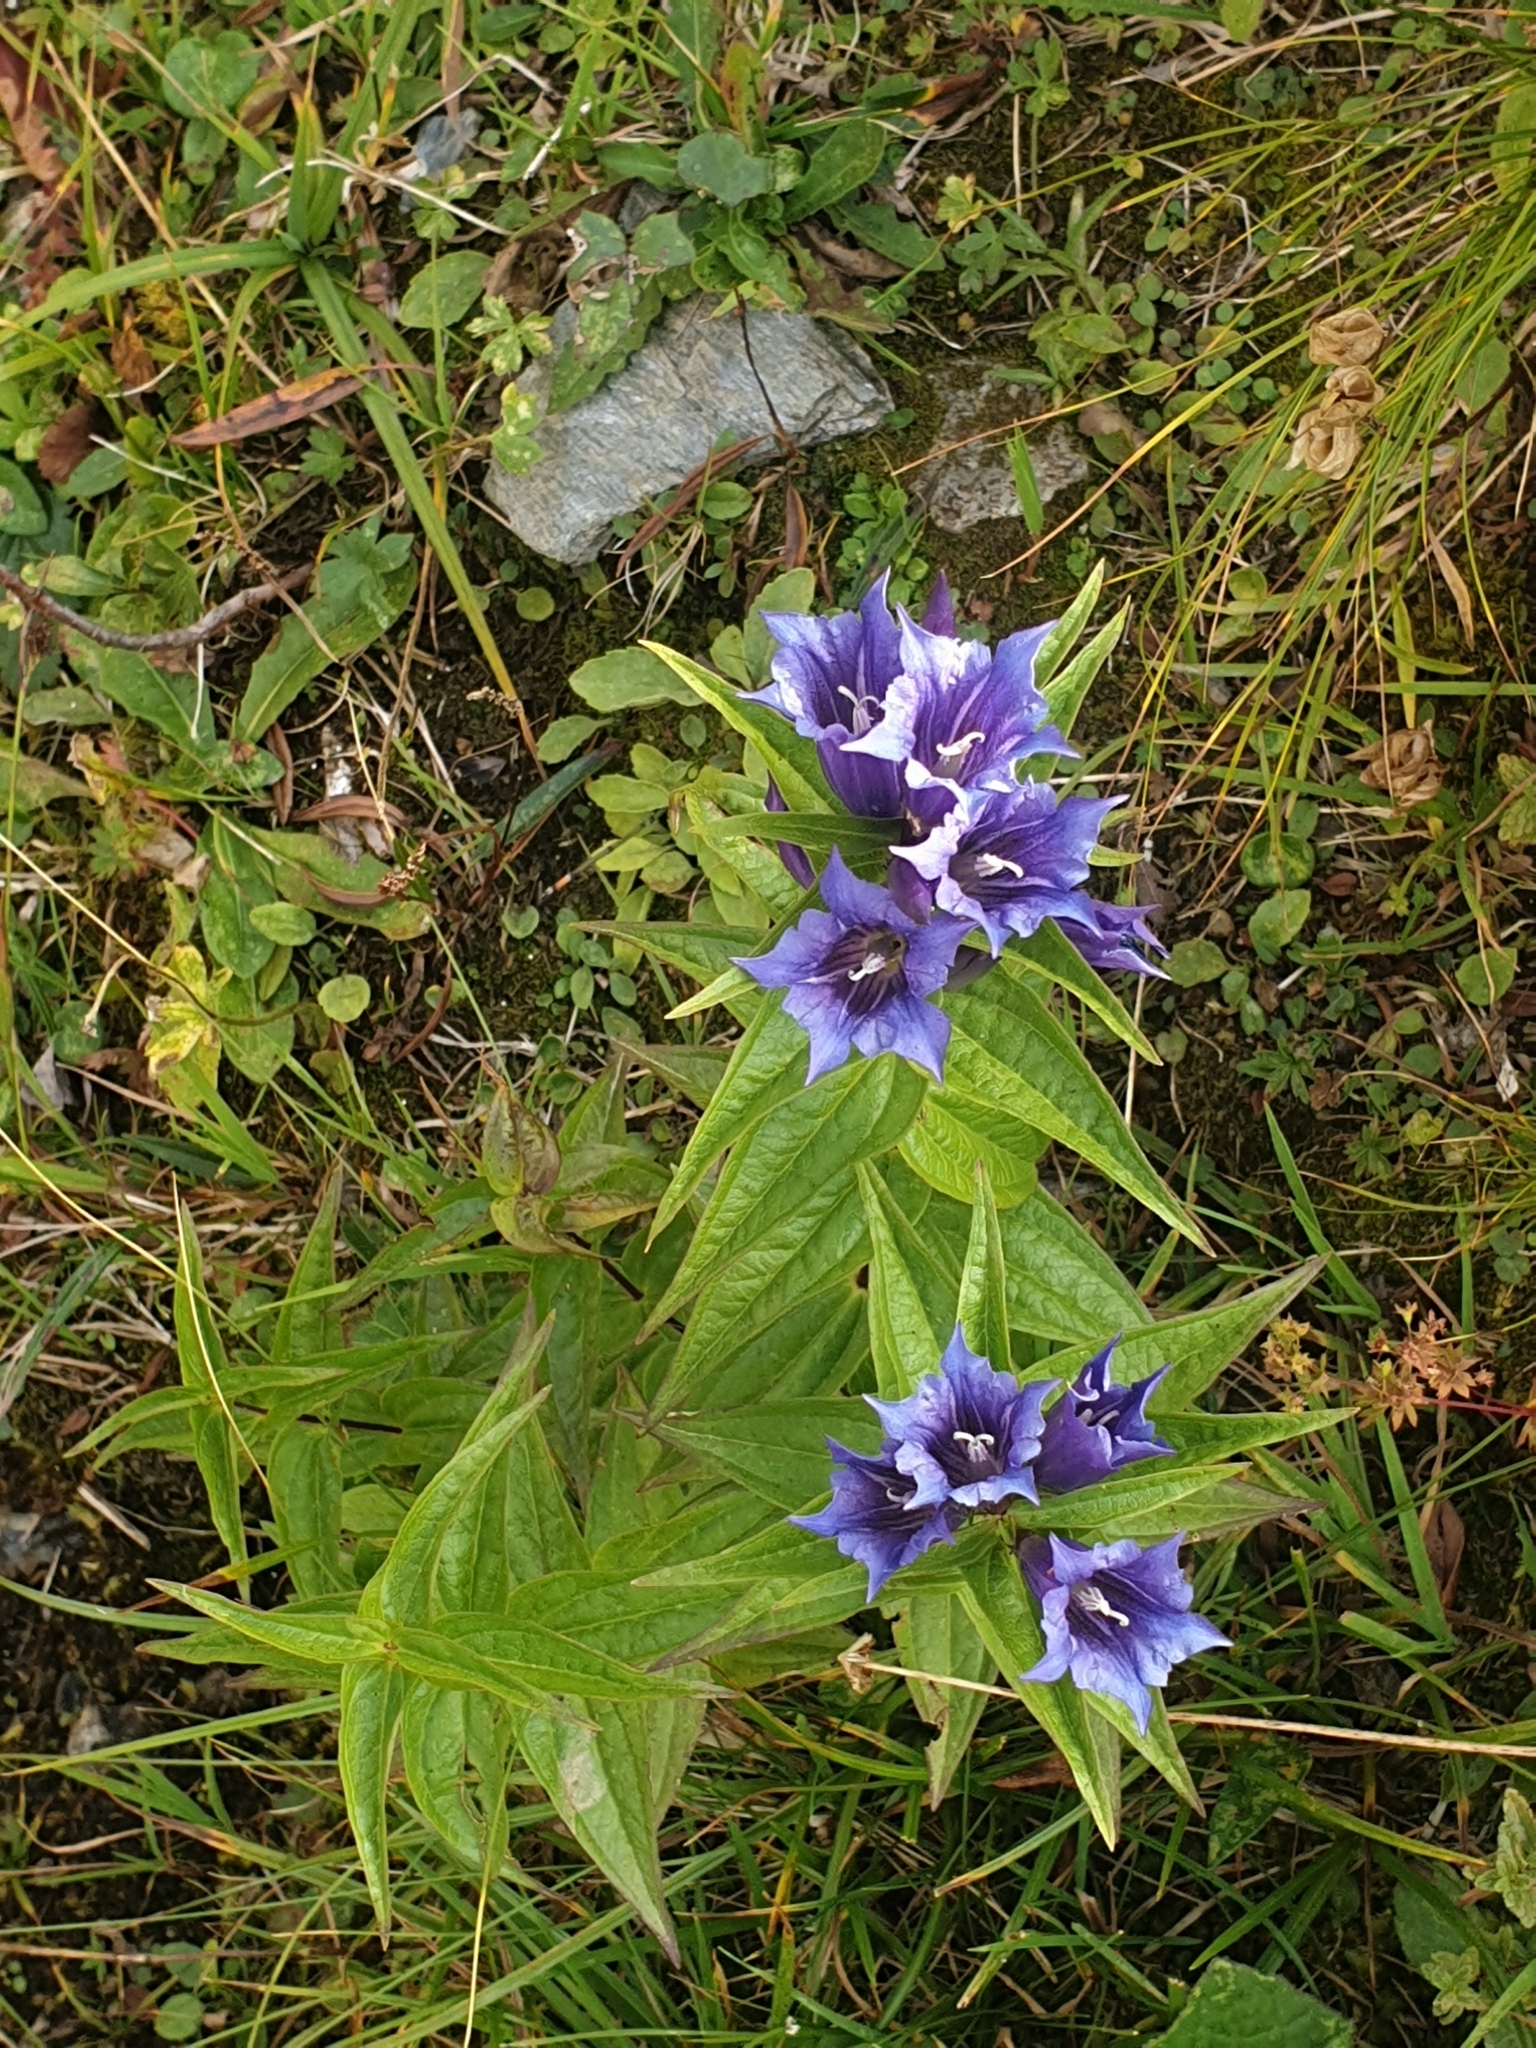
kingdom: Plantae
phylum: Tracheophyta
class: Magnoliopsida
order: Gentianales
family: Gentianaceae
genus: Gentiana
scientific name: Gentiana asclepiadea
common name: Willow gentian
